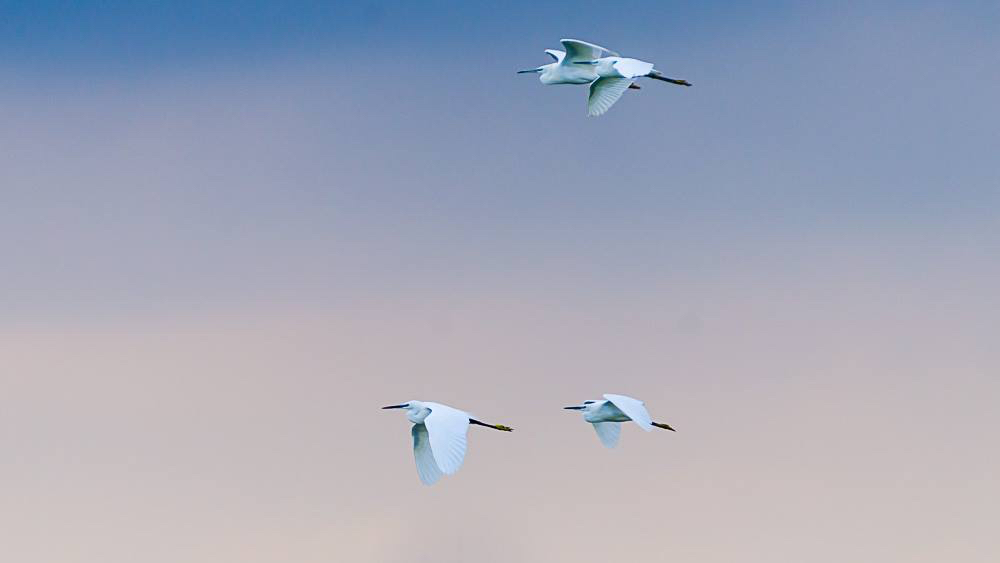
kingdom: Animalia
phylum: Chordata
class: Aves
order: Pelecaniformes
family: Ardeidae
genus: Egretta
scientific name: Egretta garzetta
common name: Little egret
